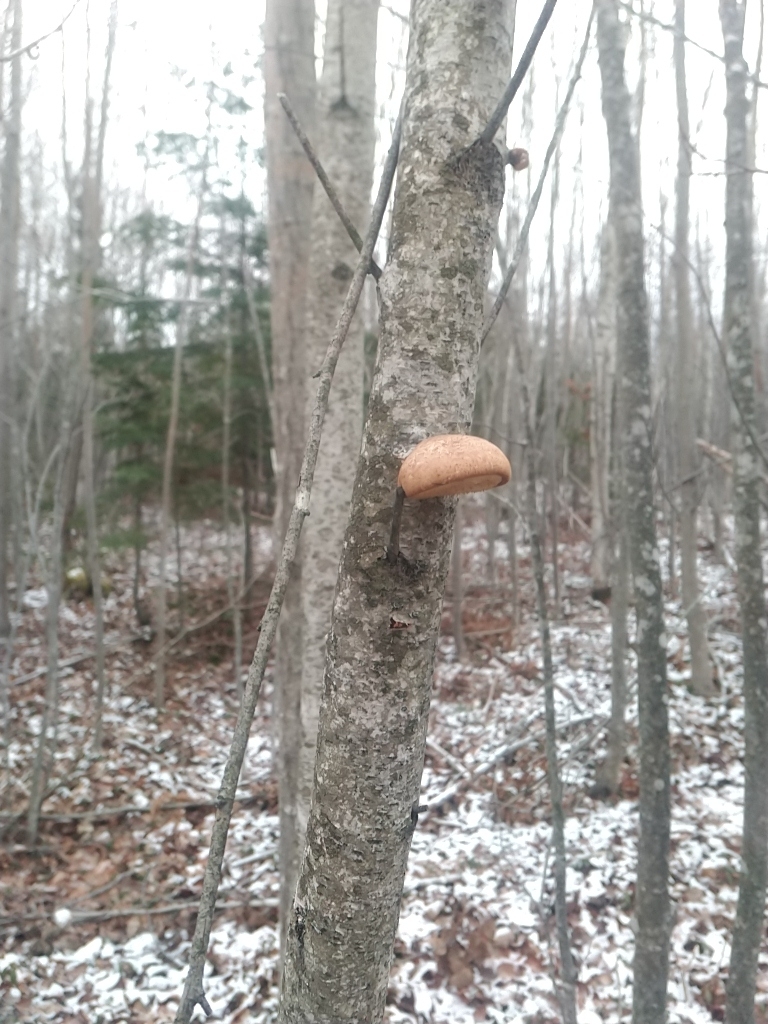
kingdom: Fungi
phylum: Basidiomycota
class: Agaricomycetes
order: Polyporales
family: Fomitopsidaceae
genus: Fomitopsis
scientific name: Fomitopsis betulina
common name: Birch polypore
